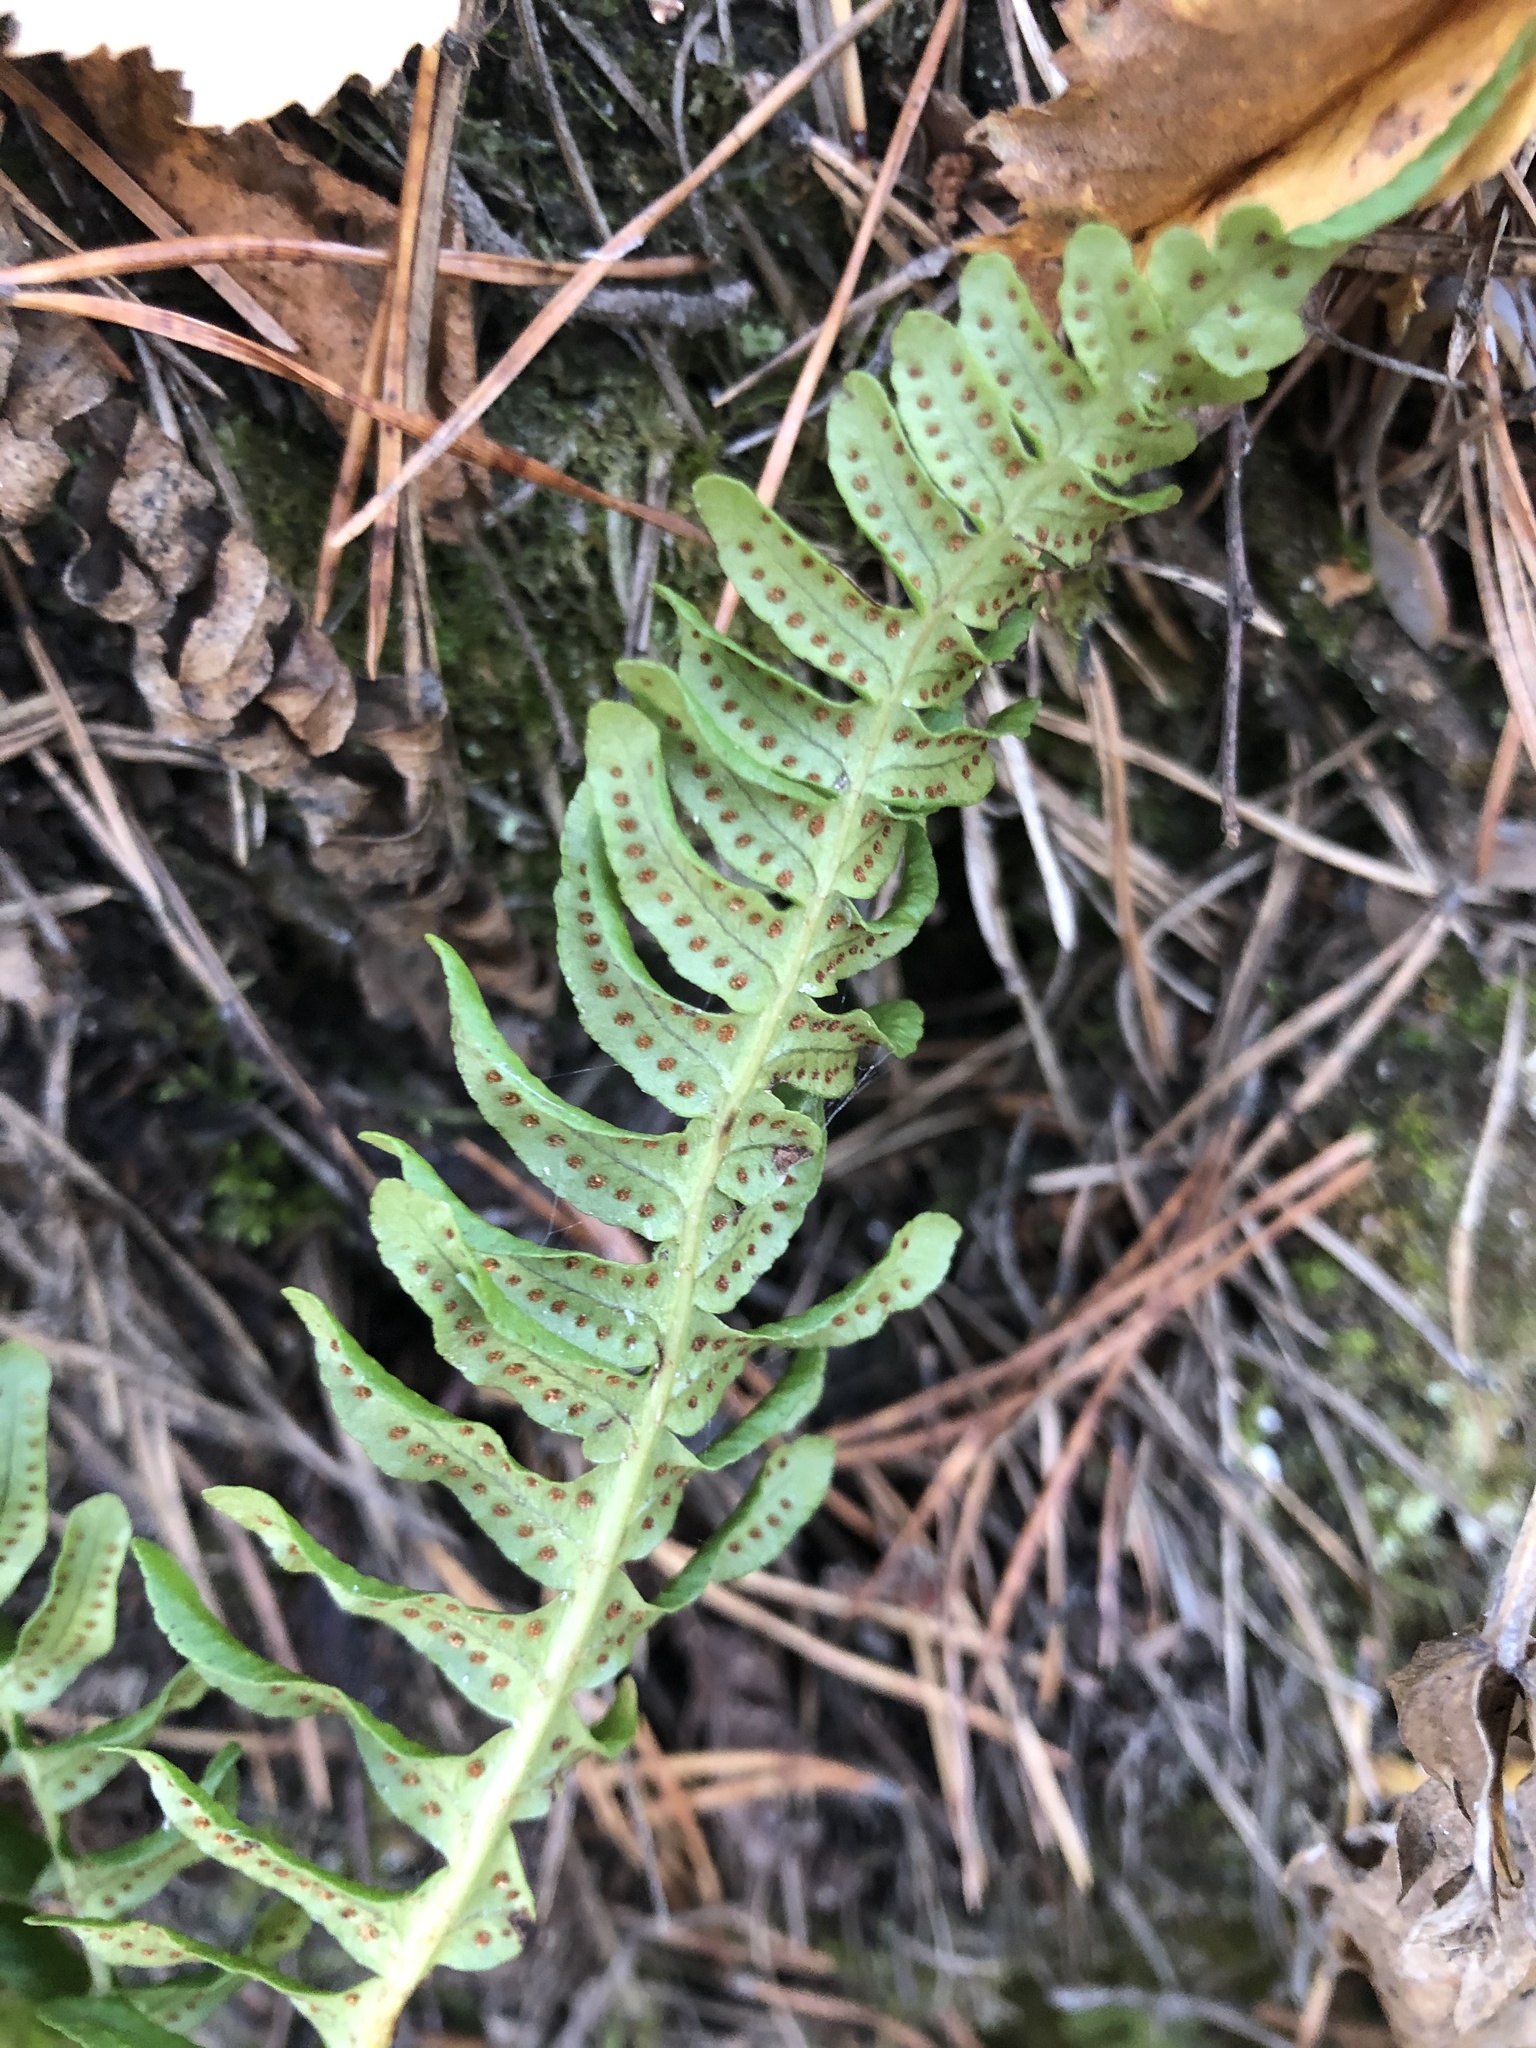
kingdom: Plantae
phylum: Tracheophyta
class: Polypodiopsida
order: Polypodiales
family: Polypodiaceae
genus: Polypodium
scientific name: Polypodium vulgare
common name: Common polypody
